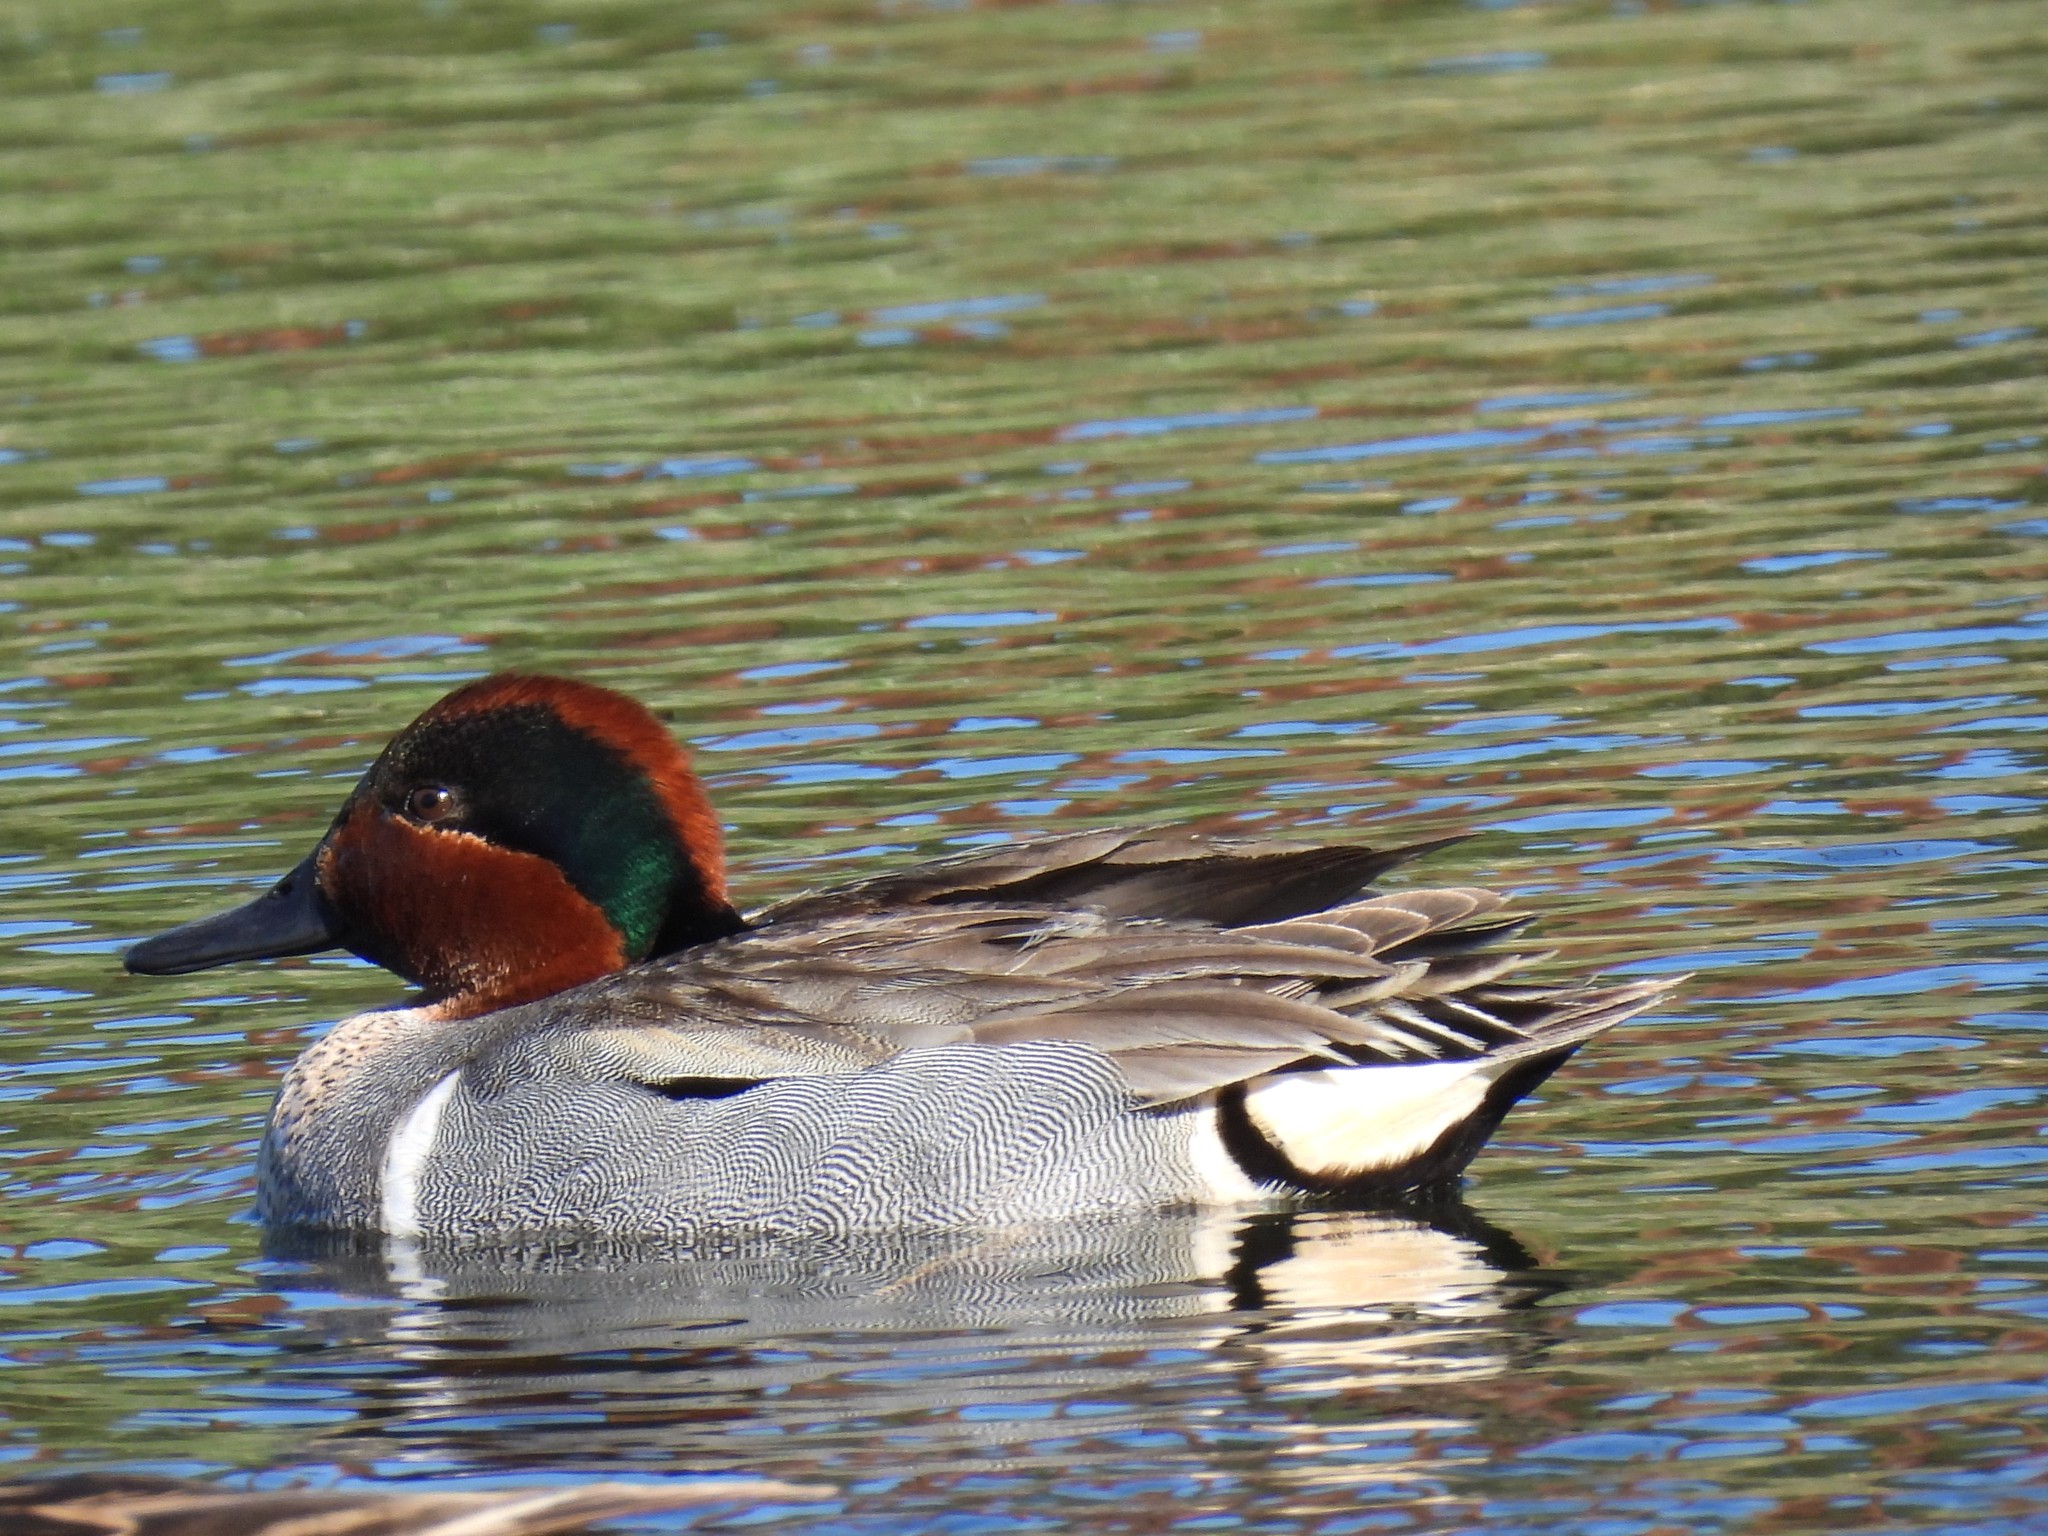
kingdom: Animalia
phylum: Chordata
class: Aves
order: Anseriformes
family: Anatidae
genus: Anas
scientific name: Anas crecca
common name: Eurasian teal
